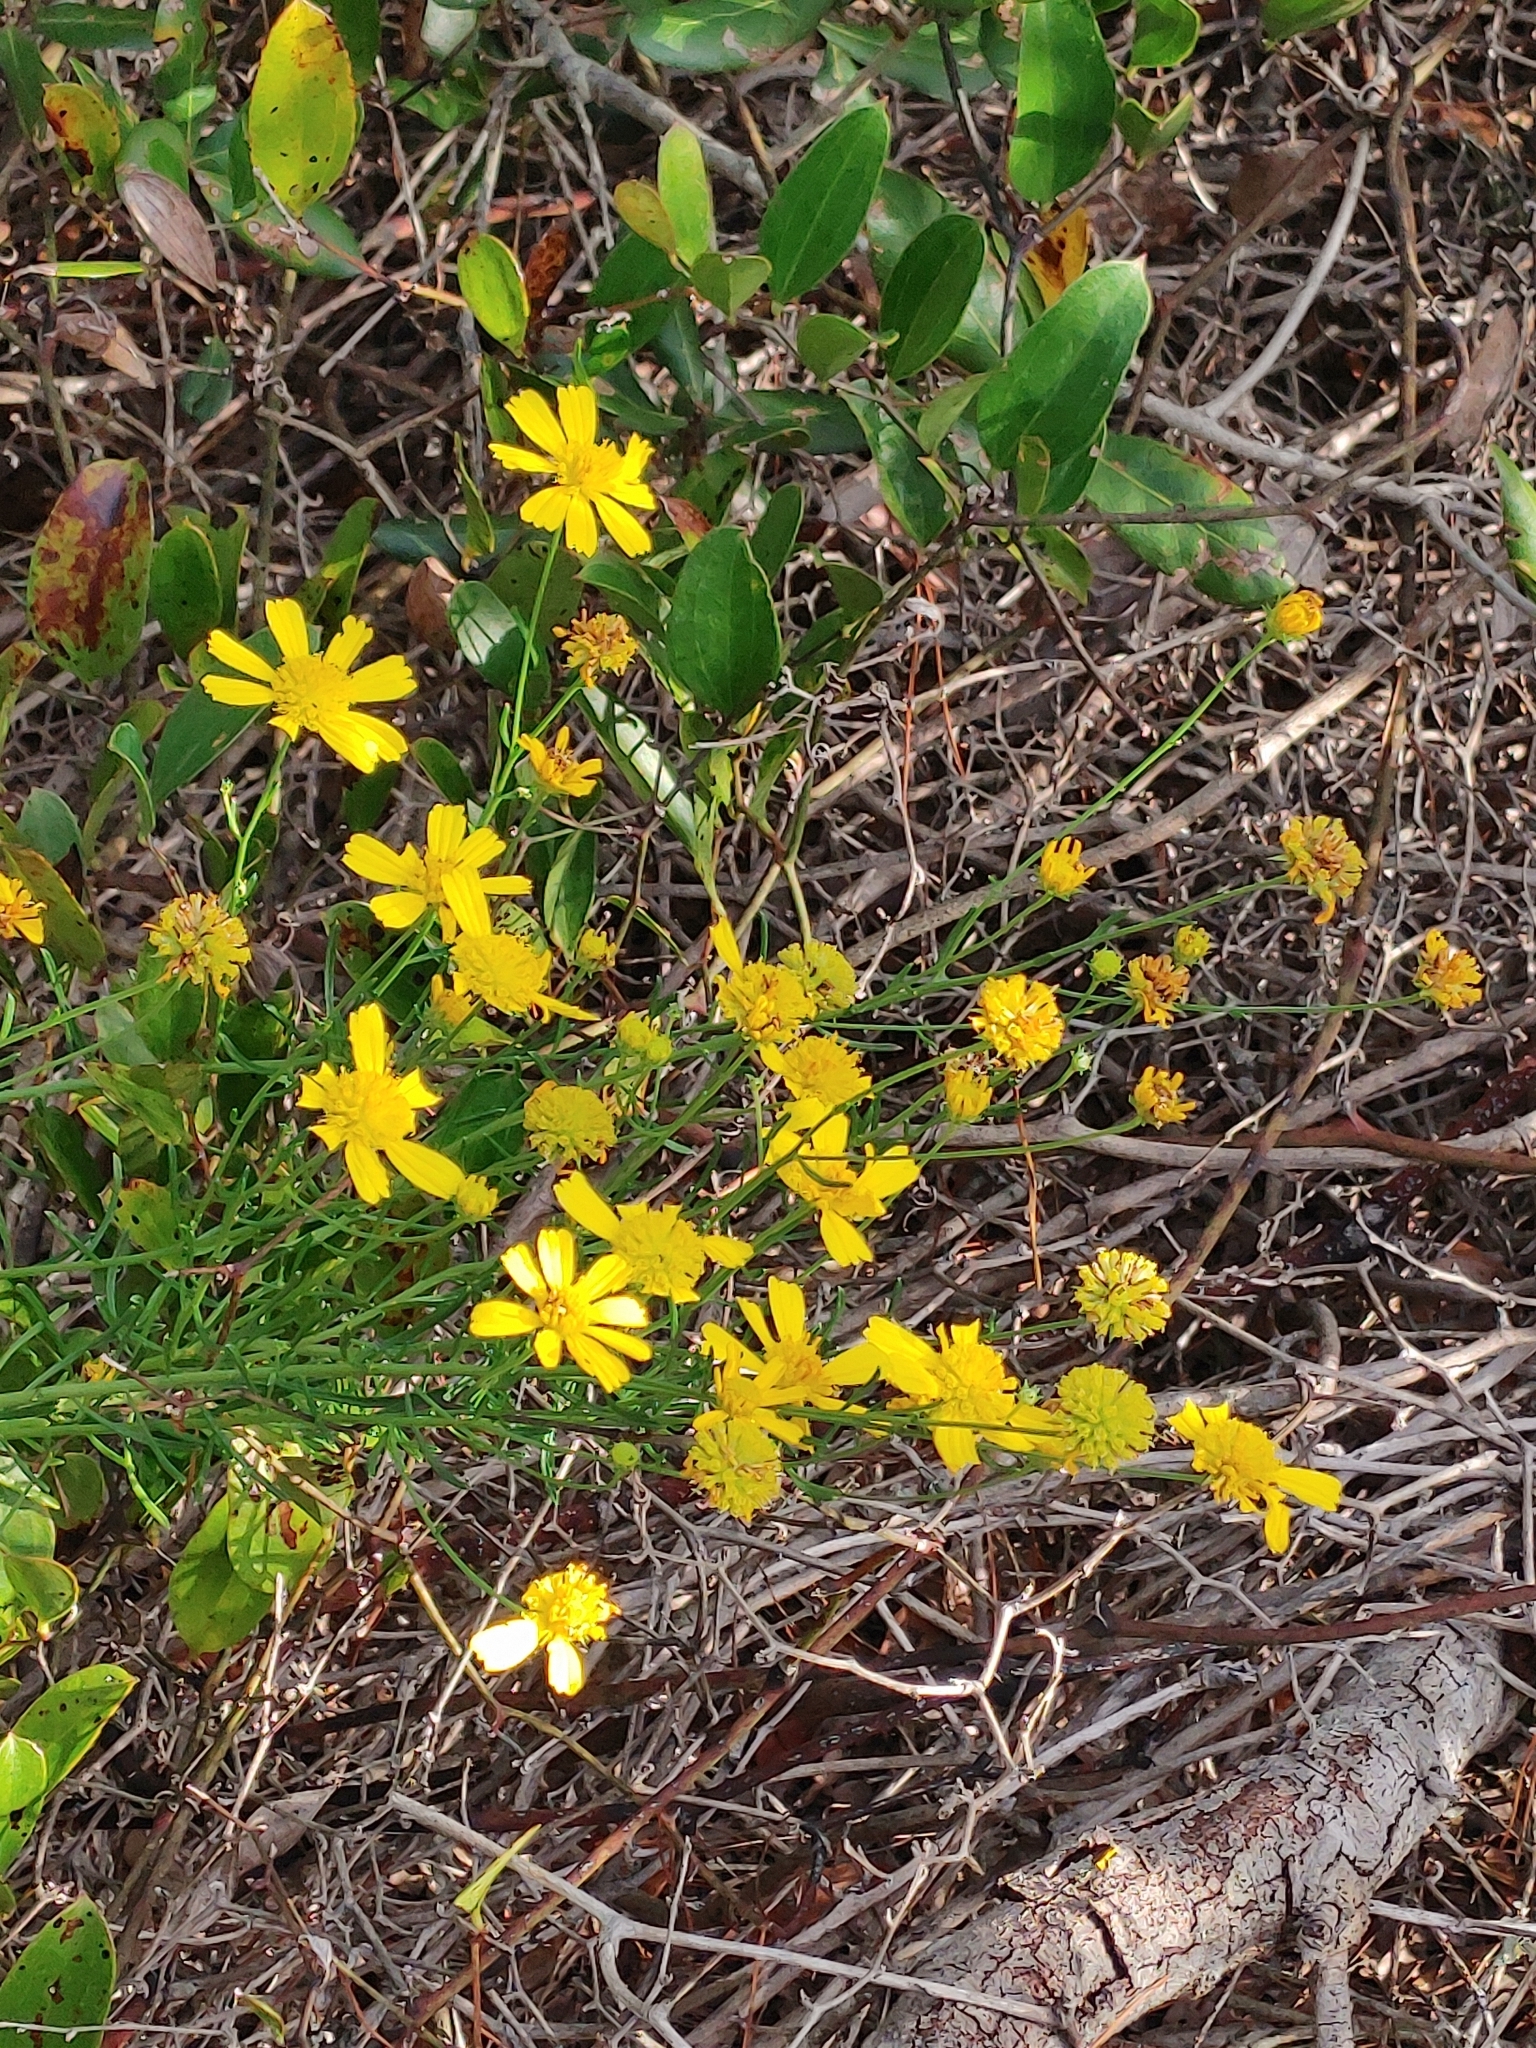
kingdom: Plantae
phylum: Tracheophyta
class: Magnoliopsida
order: Asterales
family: Asteraceae
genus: Balduina
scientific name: Balduina angustifolia
